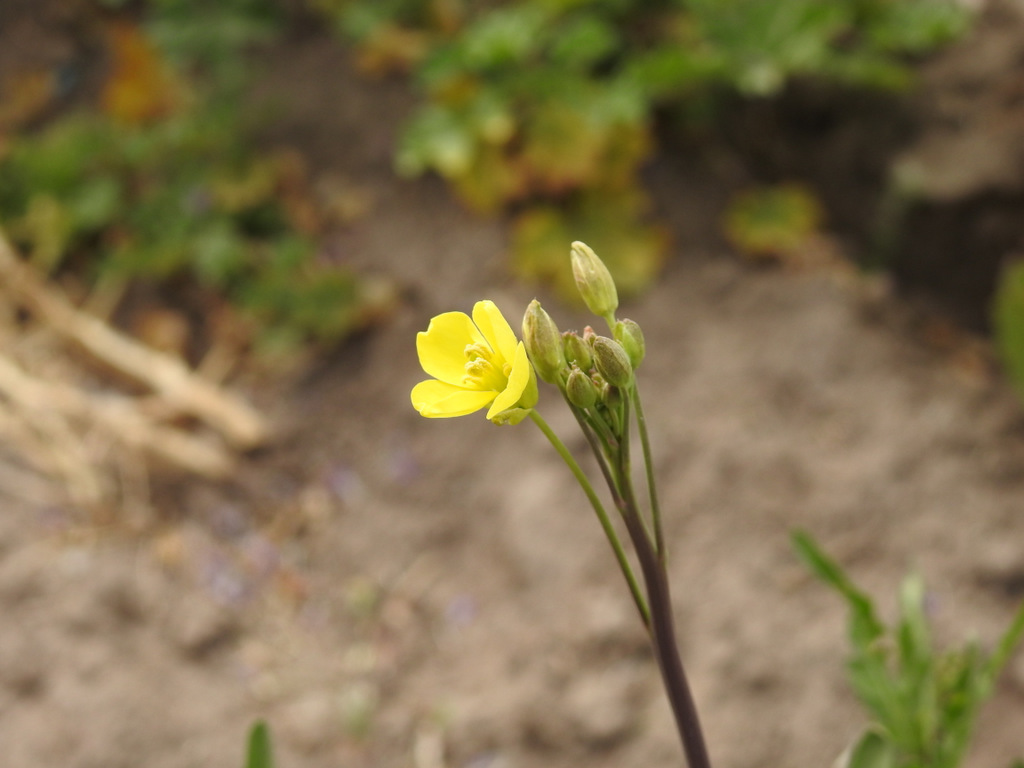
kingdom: Plantae
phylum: Tracheophyta
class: Magnoliopsida
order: Brassicales
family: Brassicaceae
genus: Diplotaxis
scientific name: Diplotaxis tenuifolia
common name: Perennial wall-rocket
